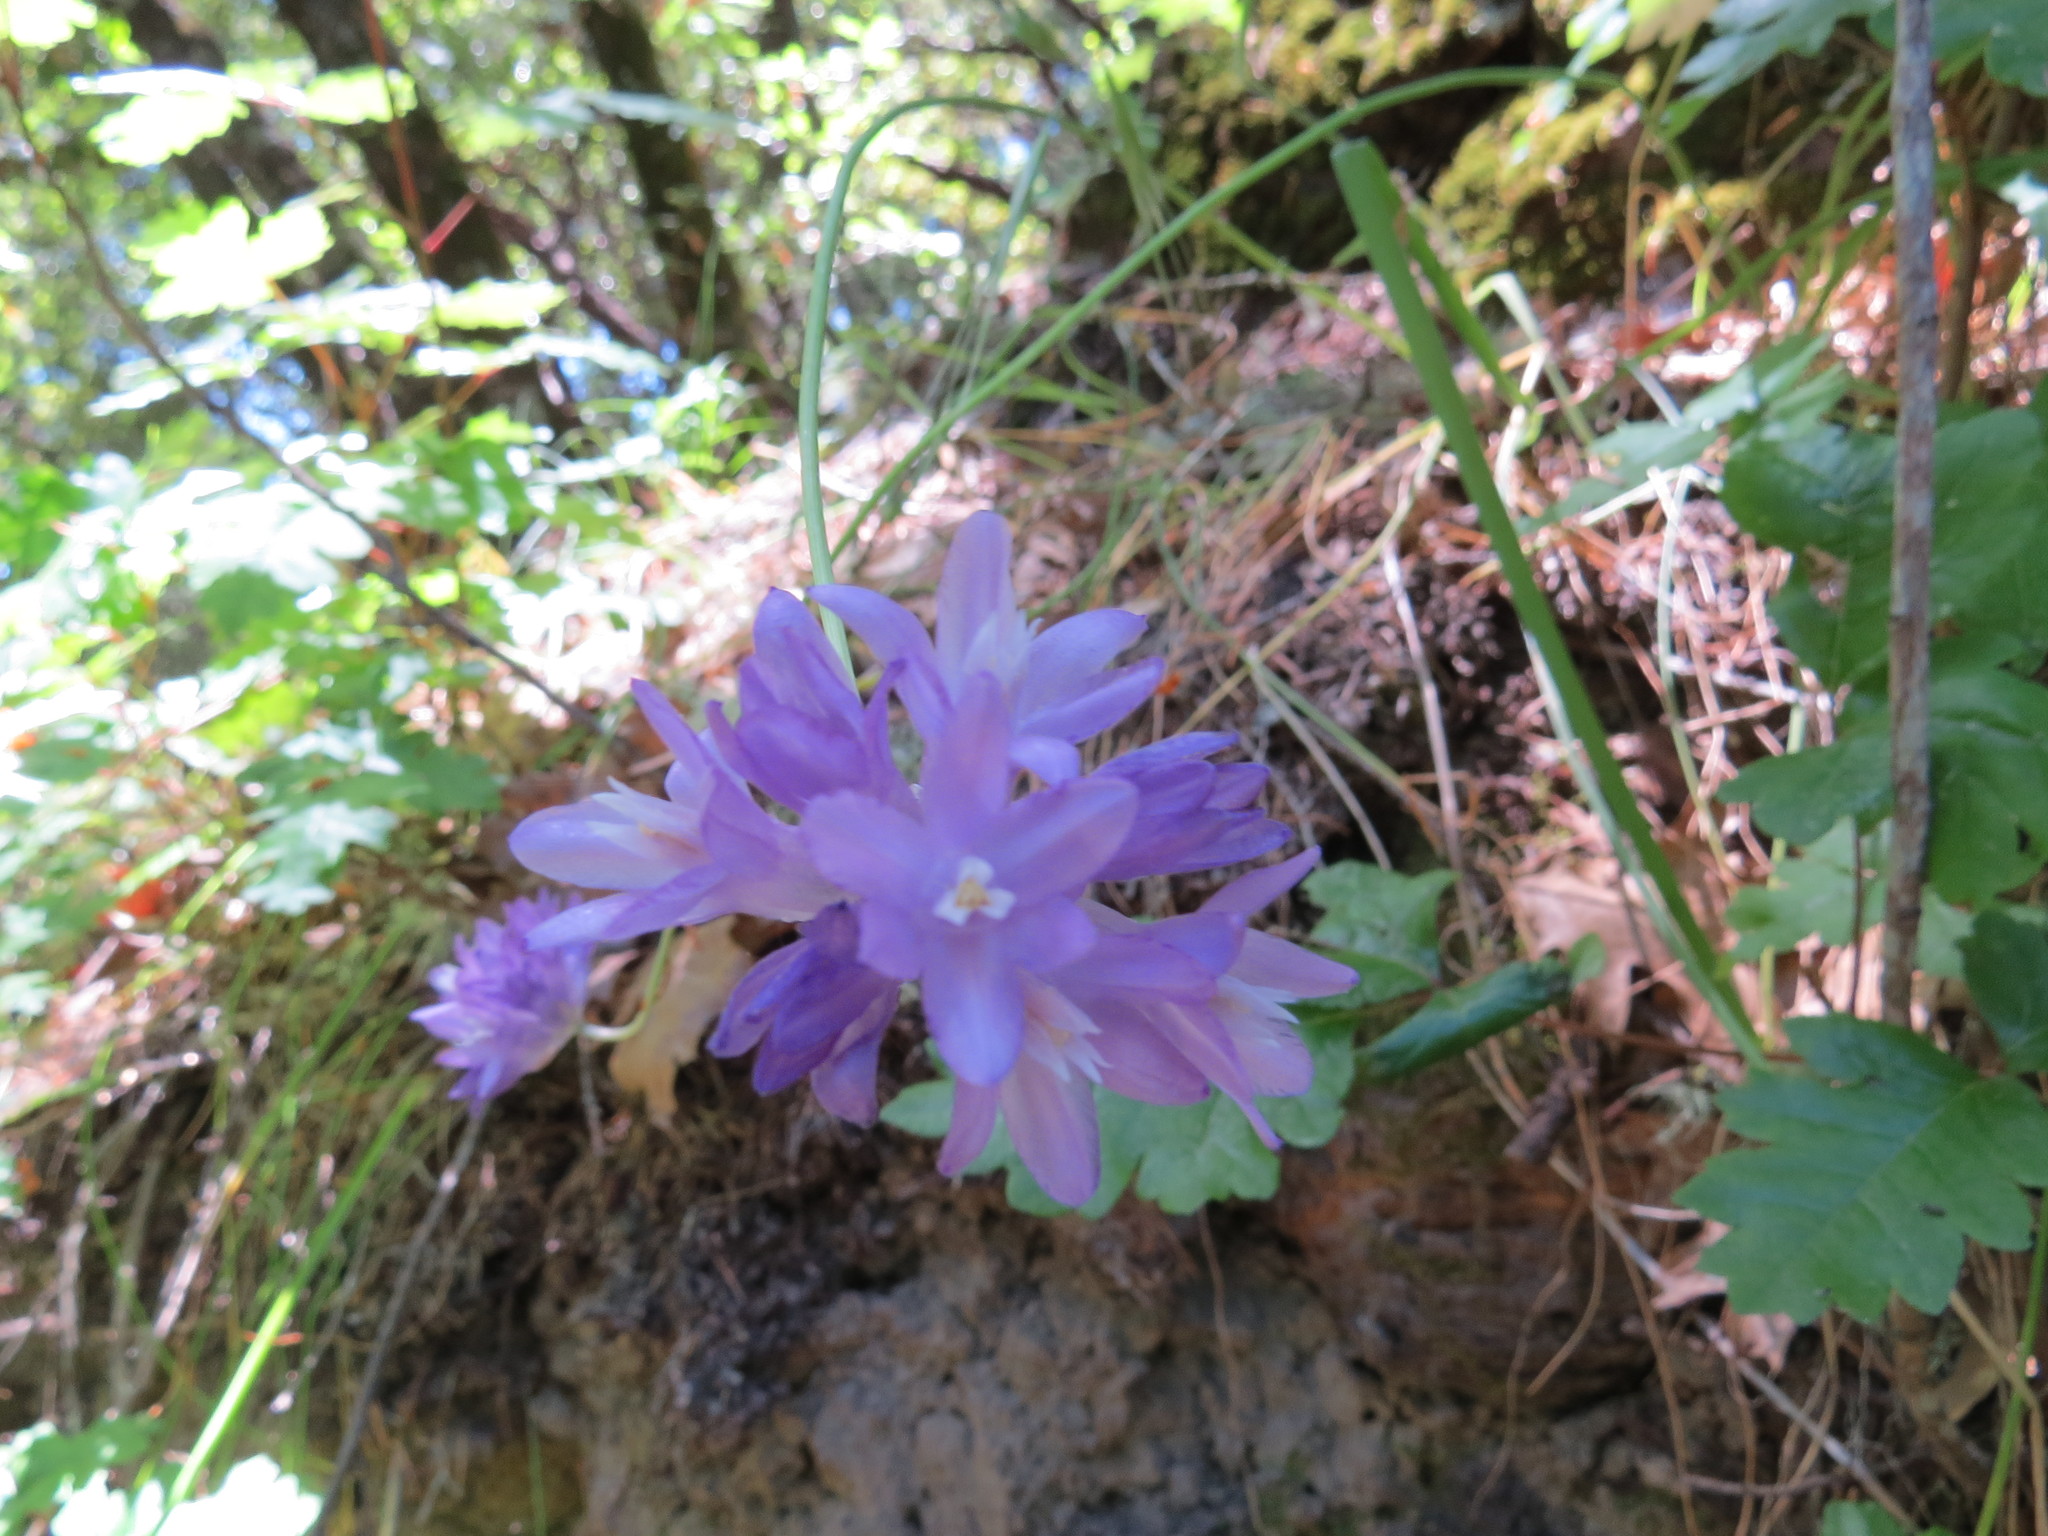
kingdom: Plantae
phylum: Tracheophyta
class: Liliopsida
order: Asparagales
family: Asparagaceae
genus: Dipterostemon
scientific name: Dipterostemon capitatus
